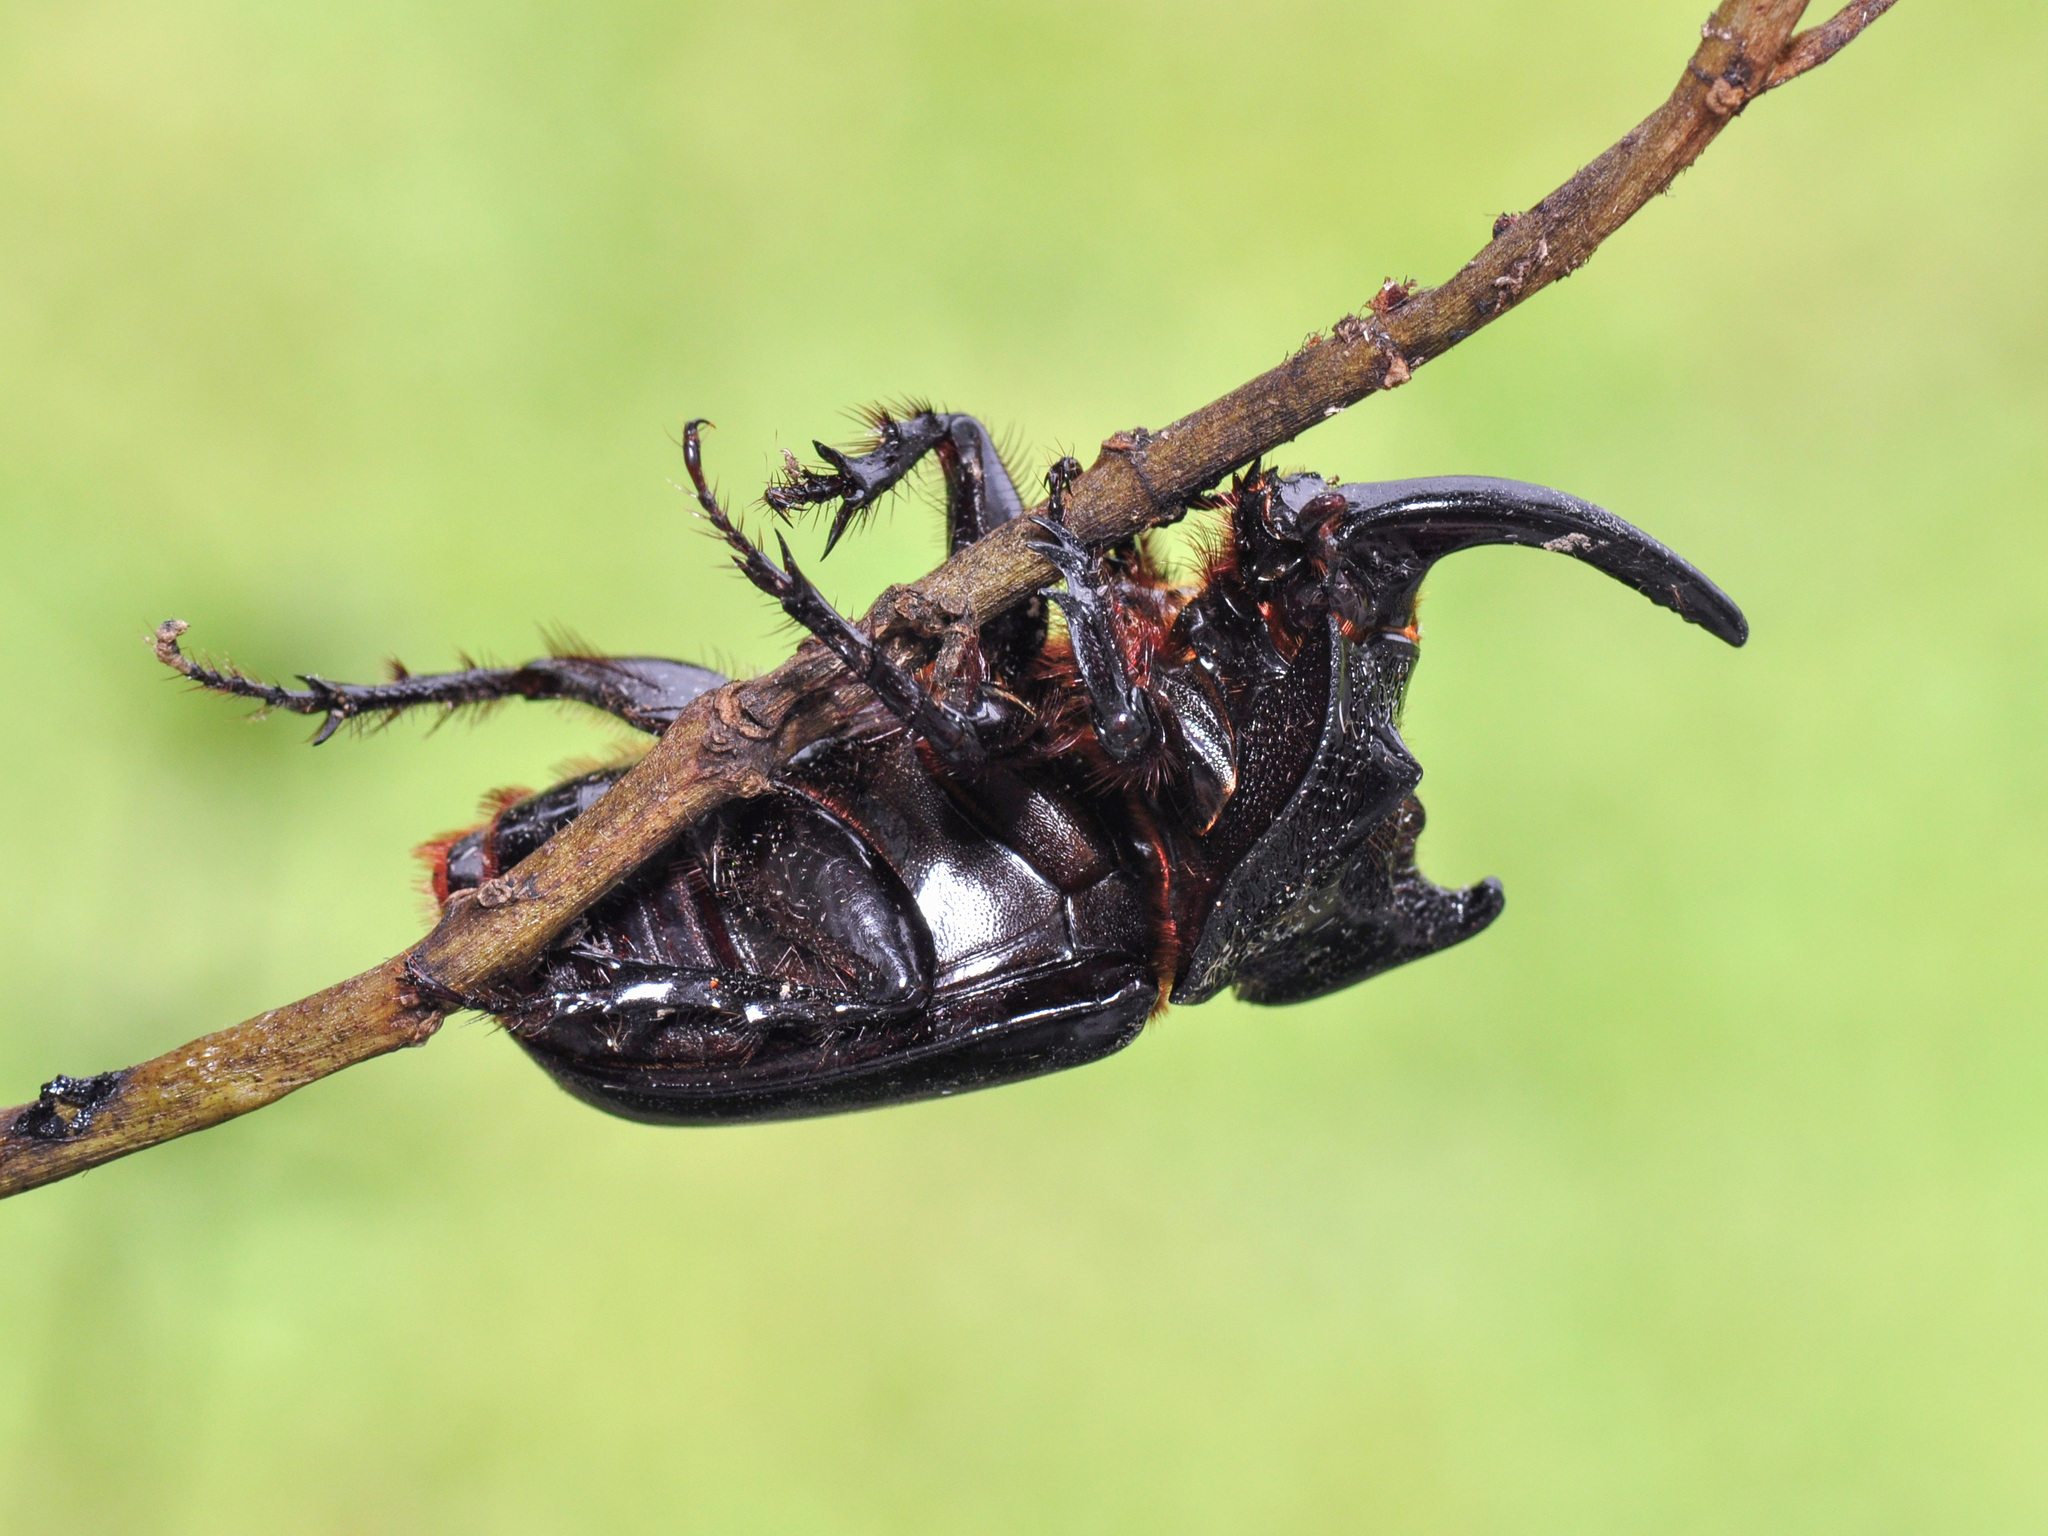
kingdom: Animalia
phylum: Arthropoda
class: Insecta
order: Coleoptera
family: Scarabaeidae
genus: Trichogomphus
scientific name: Trichogomphus simson
